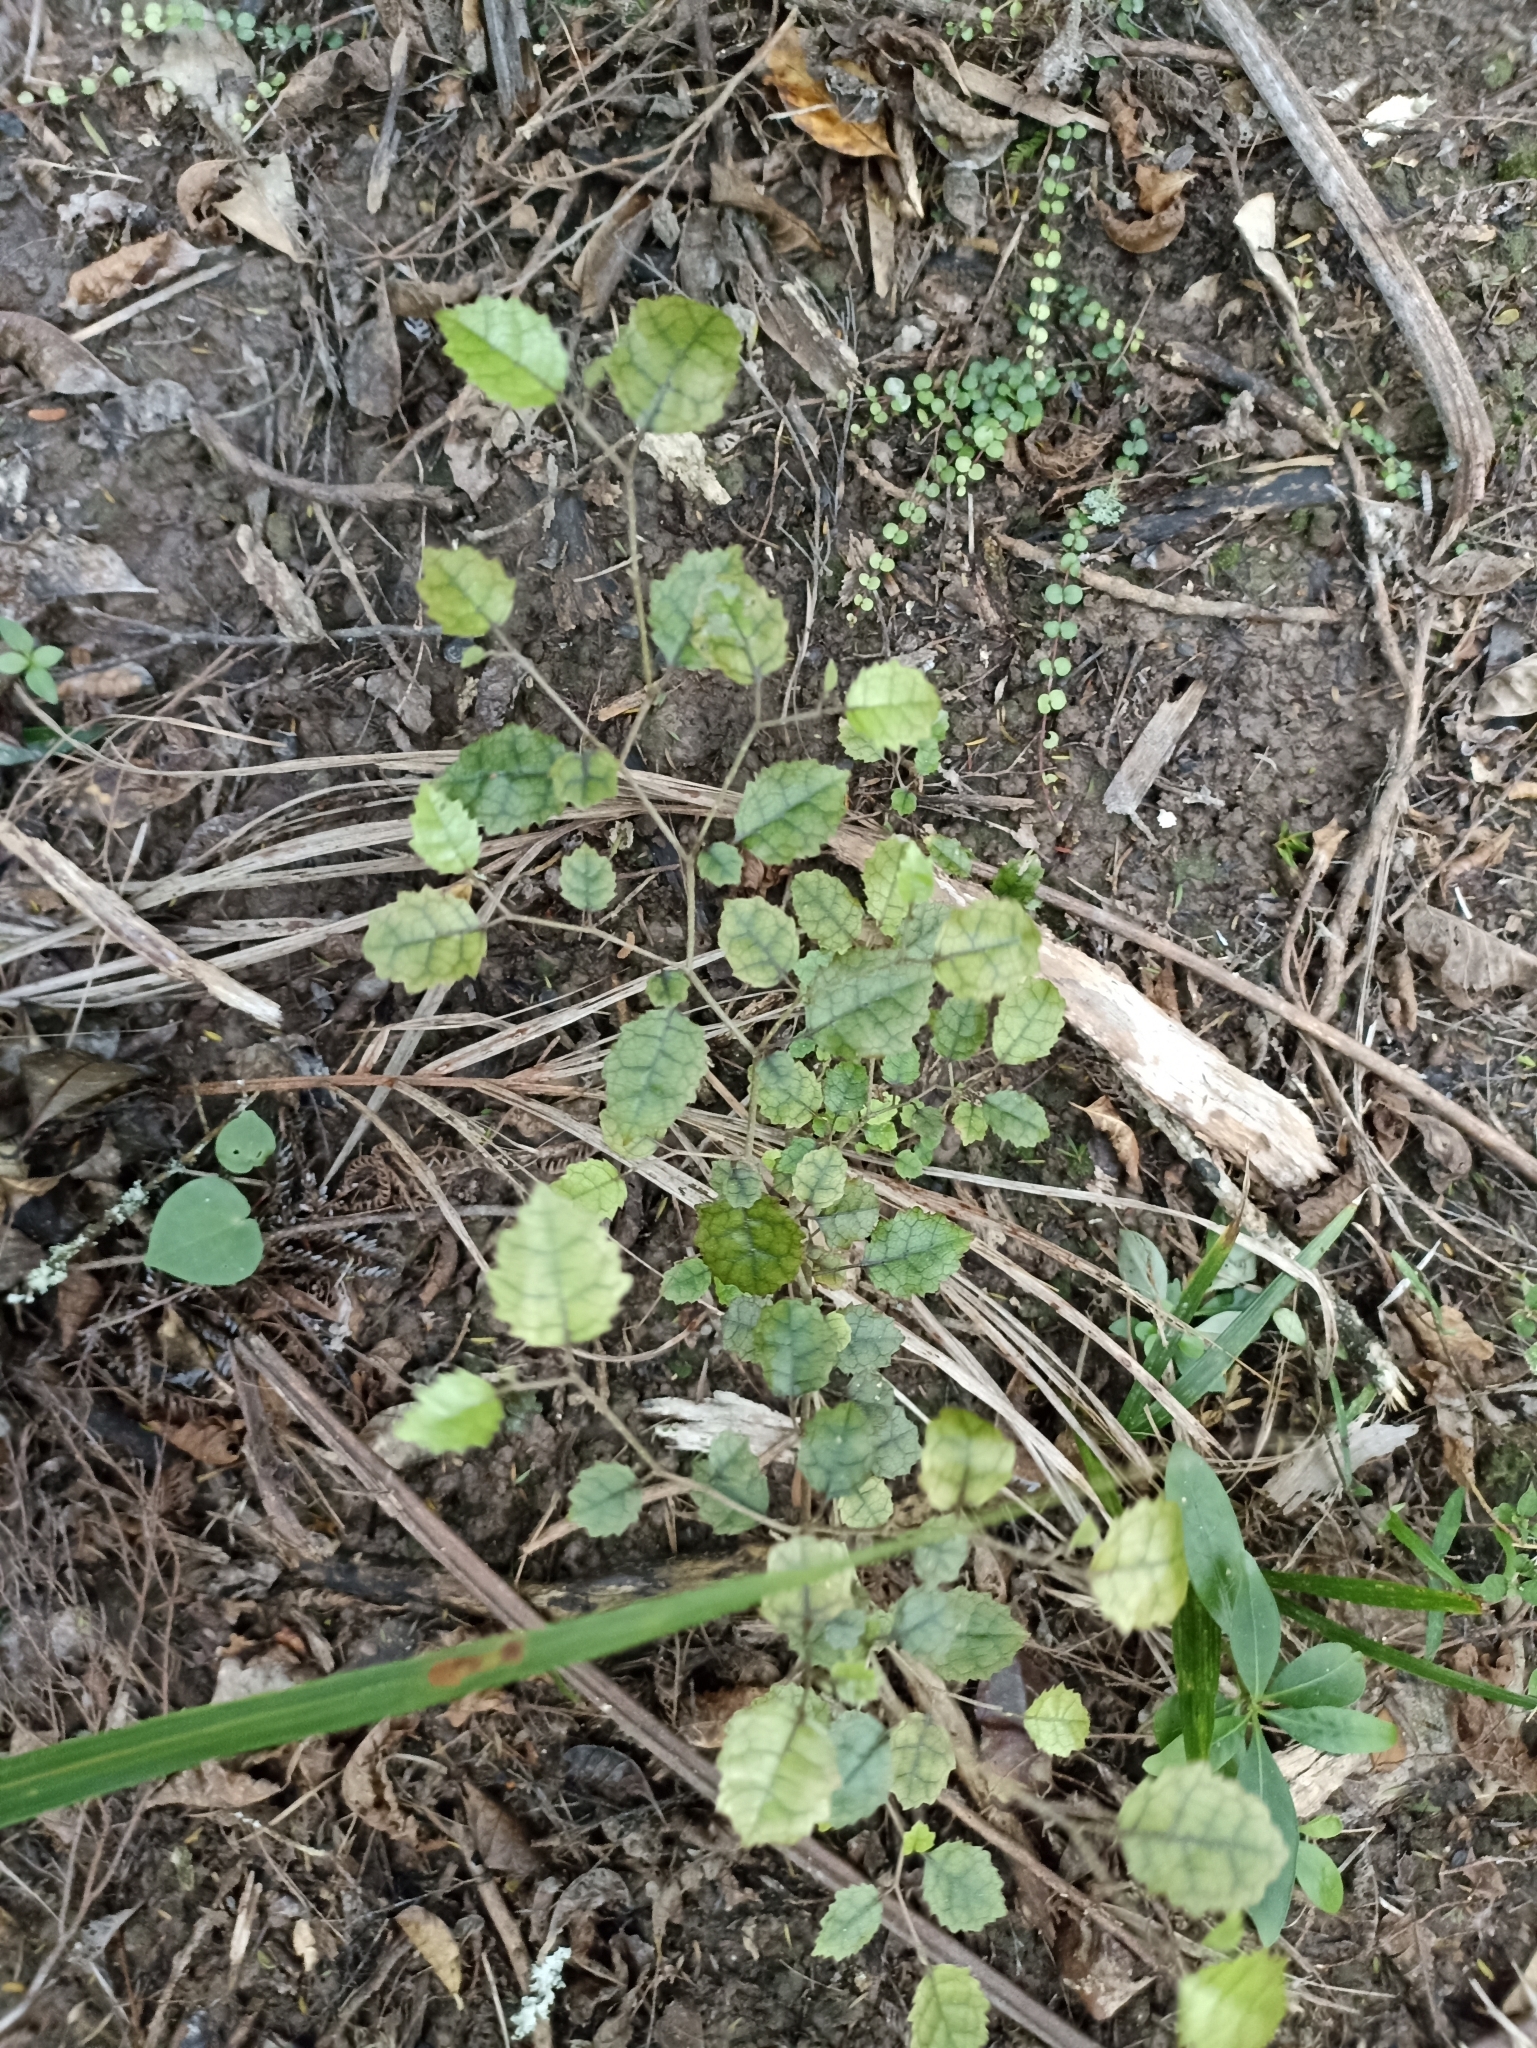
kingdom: Plantae
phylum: Tracheophyta
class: Magnoliopsida
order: Asterales
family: Rousseaceae
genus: Carpodetus
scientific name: Carpodetus serratus
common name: White mapau
